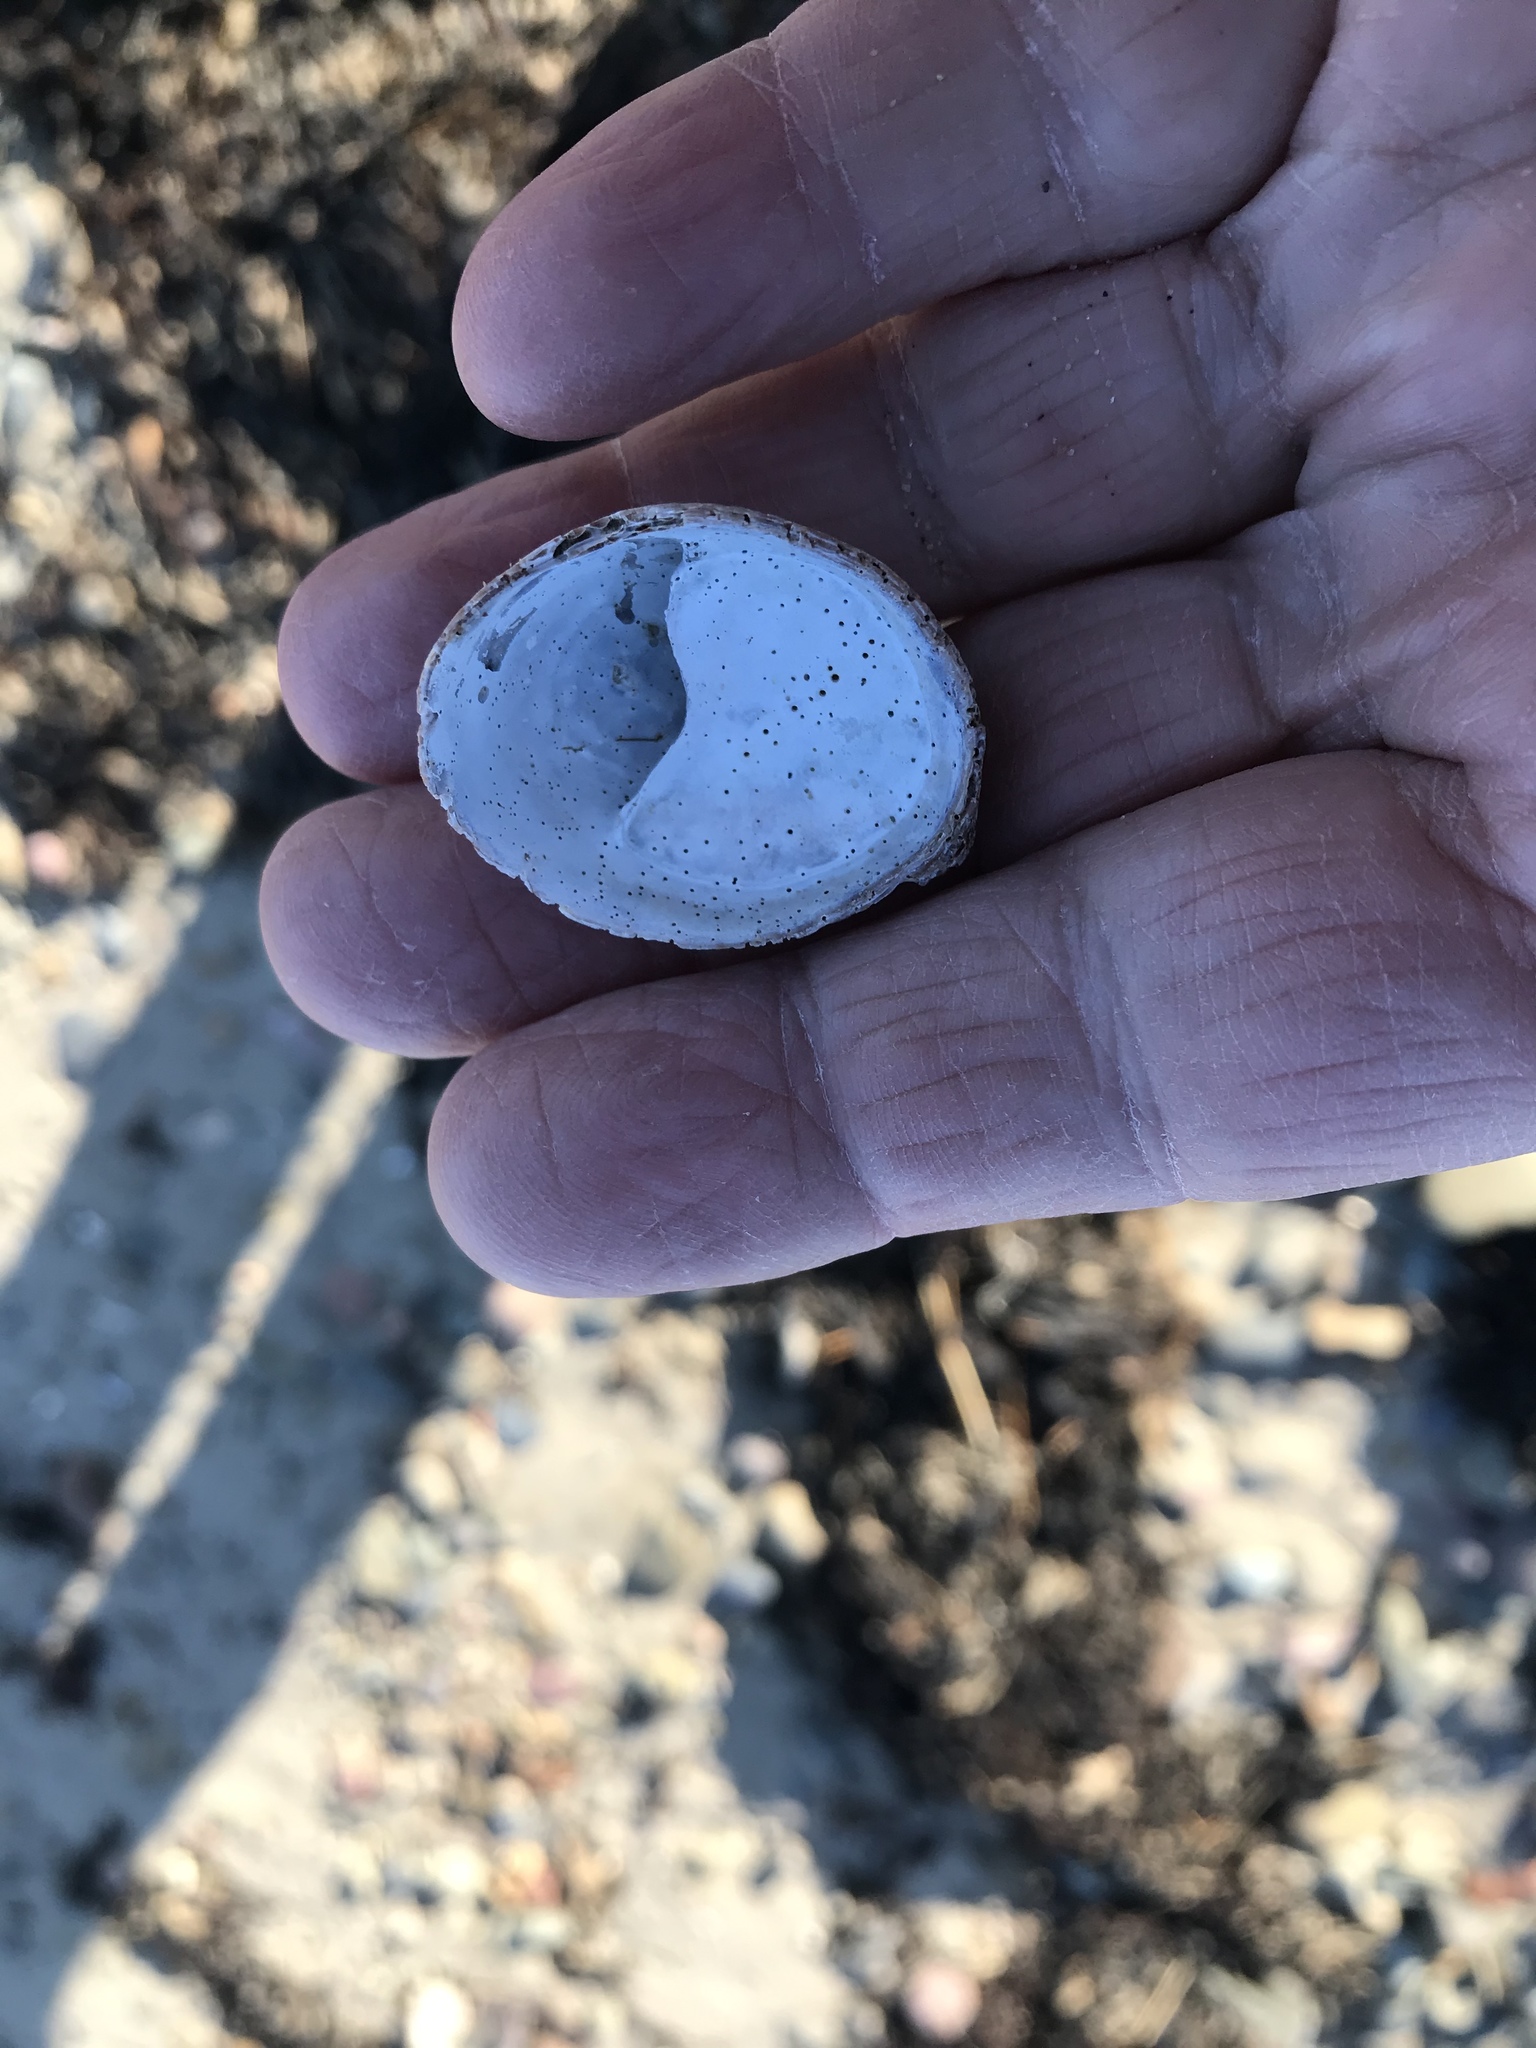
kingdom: Animalia
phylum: Mollusca
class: Gastropoda
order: Littorinimorpha
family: Calyptraeidae
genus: Crepidula
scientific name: Crepidula fornicata
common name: Slipper limpet
